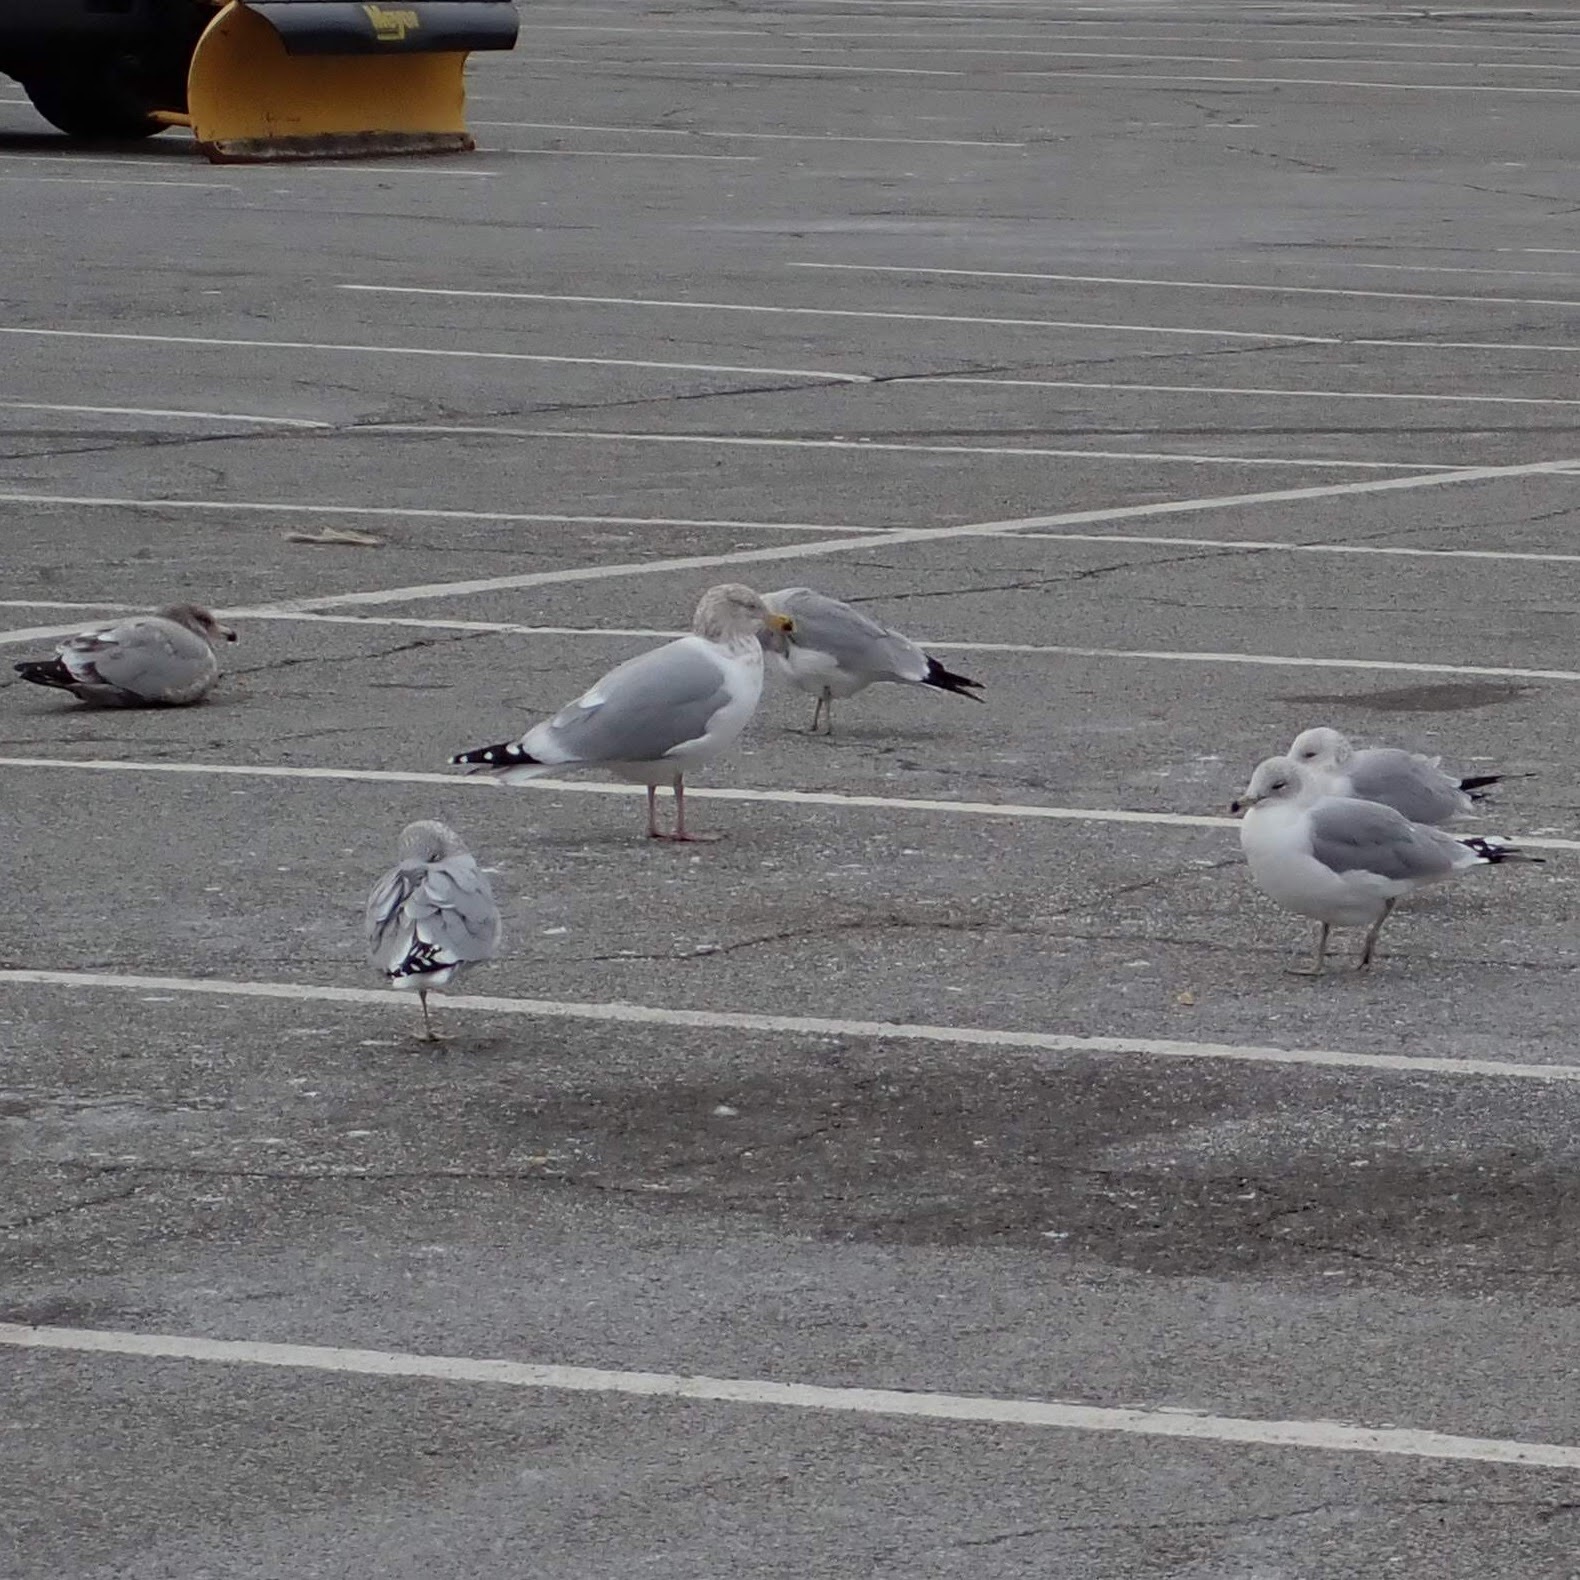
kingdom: Animalia
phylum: Chordata
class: Aves
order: Charadriiformes
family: Laridae
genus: Larus
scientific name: Larus delawarensis
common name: Ring-billed gull
